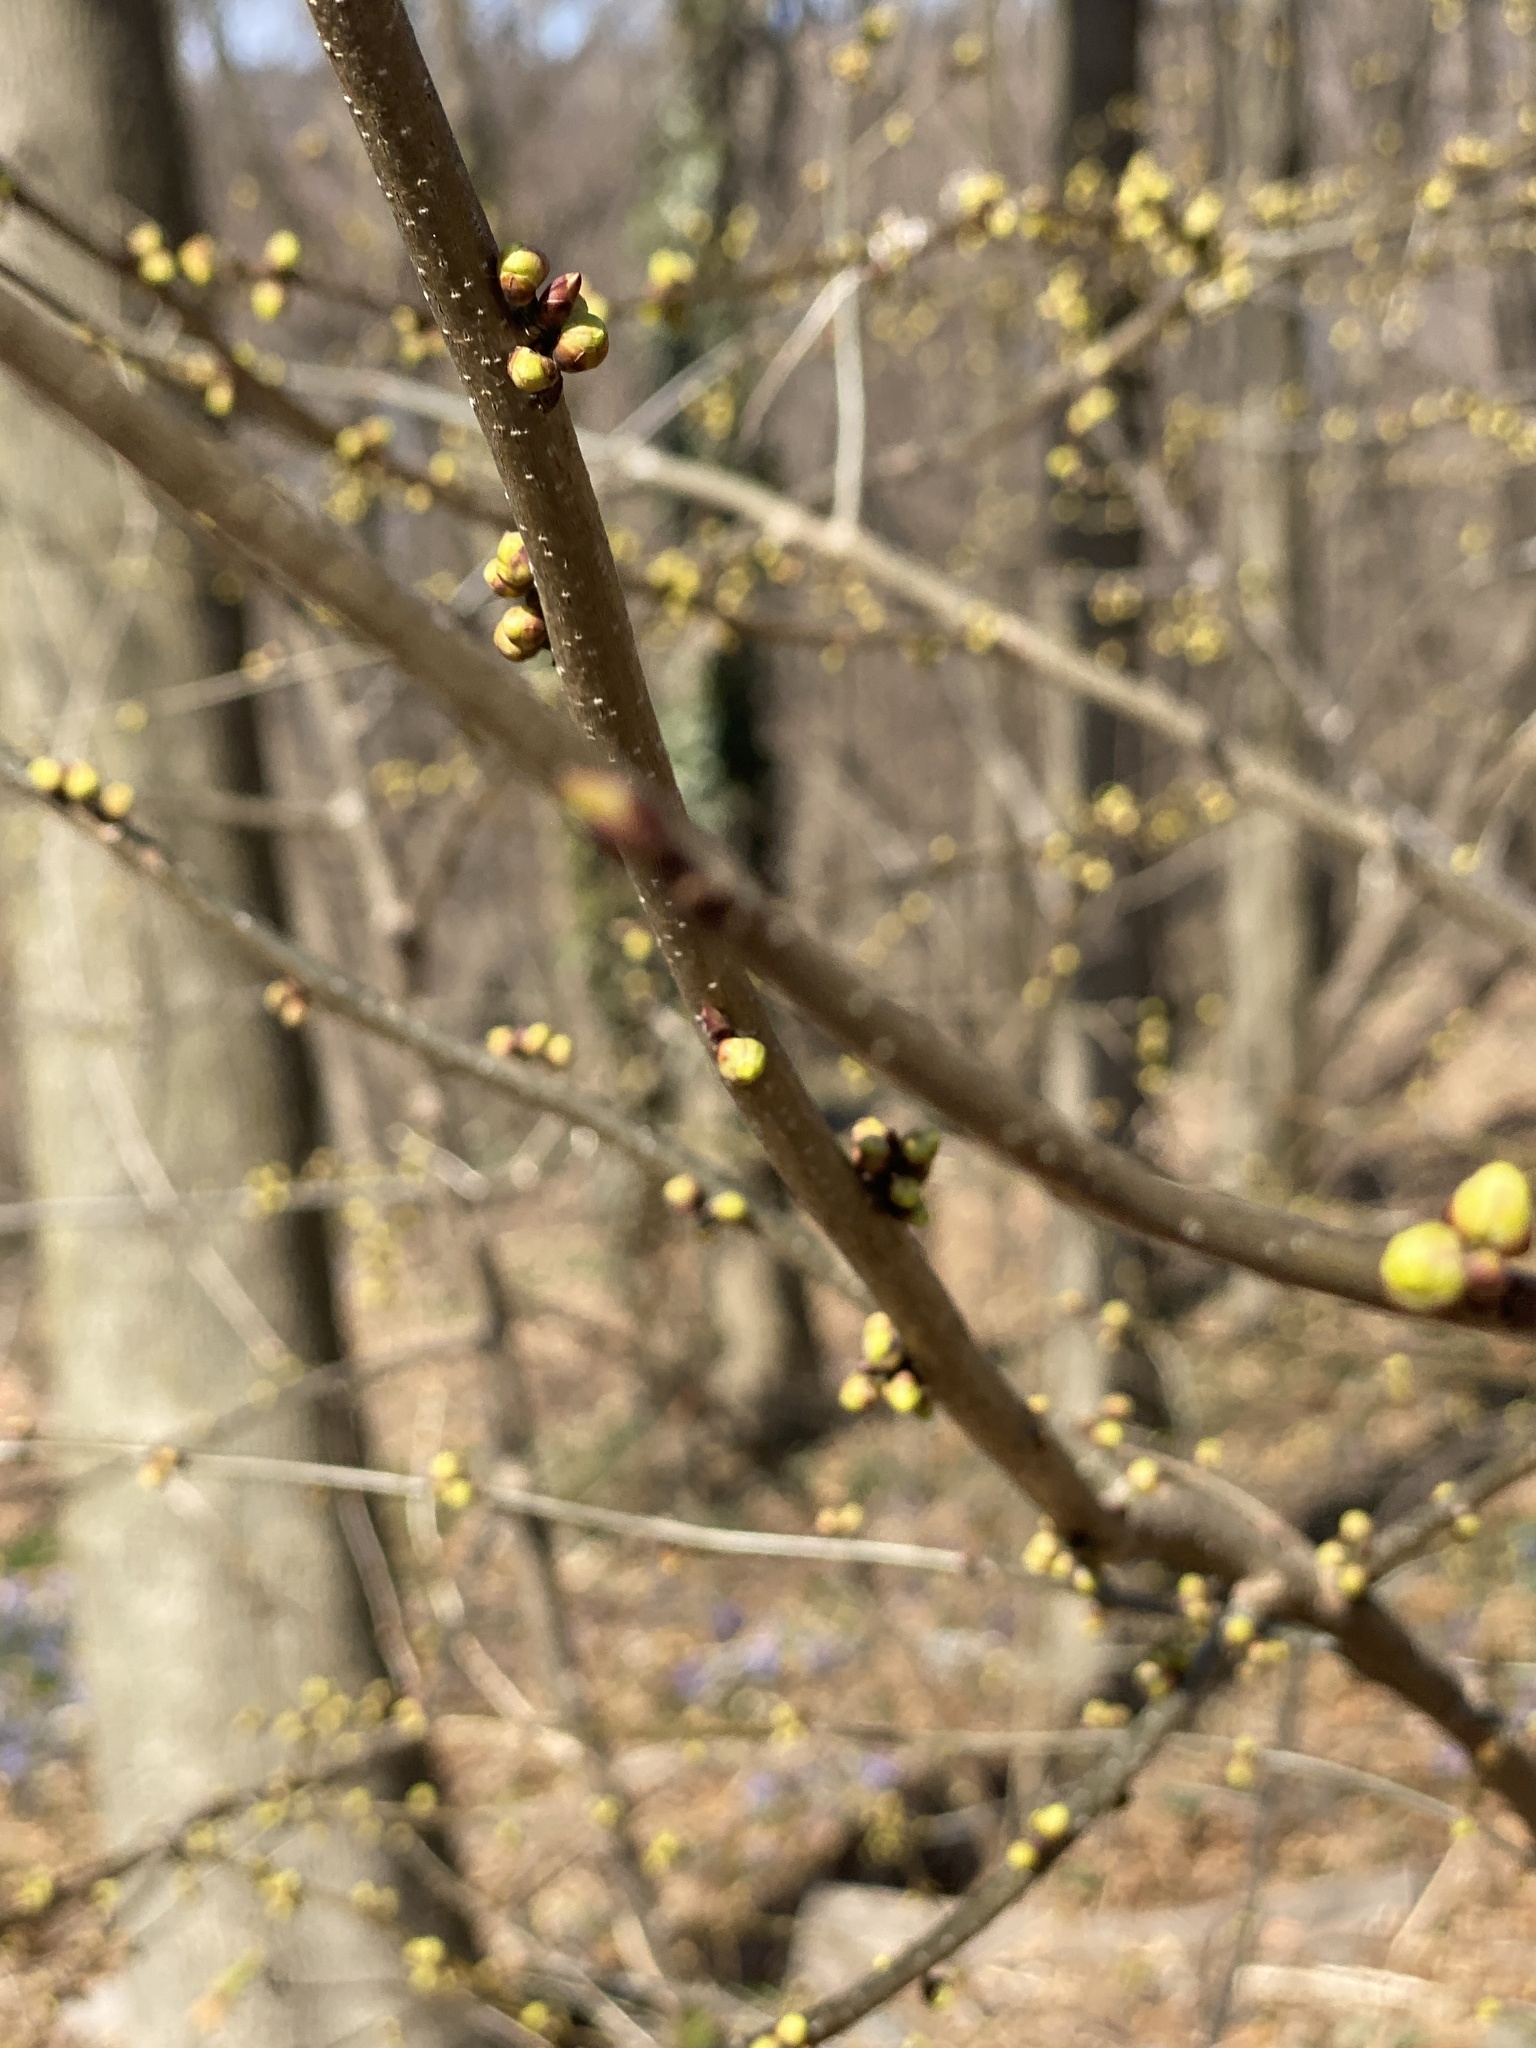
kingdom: Plantae
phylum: Tracheophyta
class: Magnoliopsida
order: Laurales
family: Lauraceae
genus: Lindera
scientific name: Lindera benzoin
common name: Spicebush
